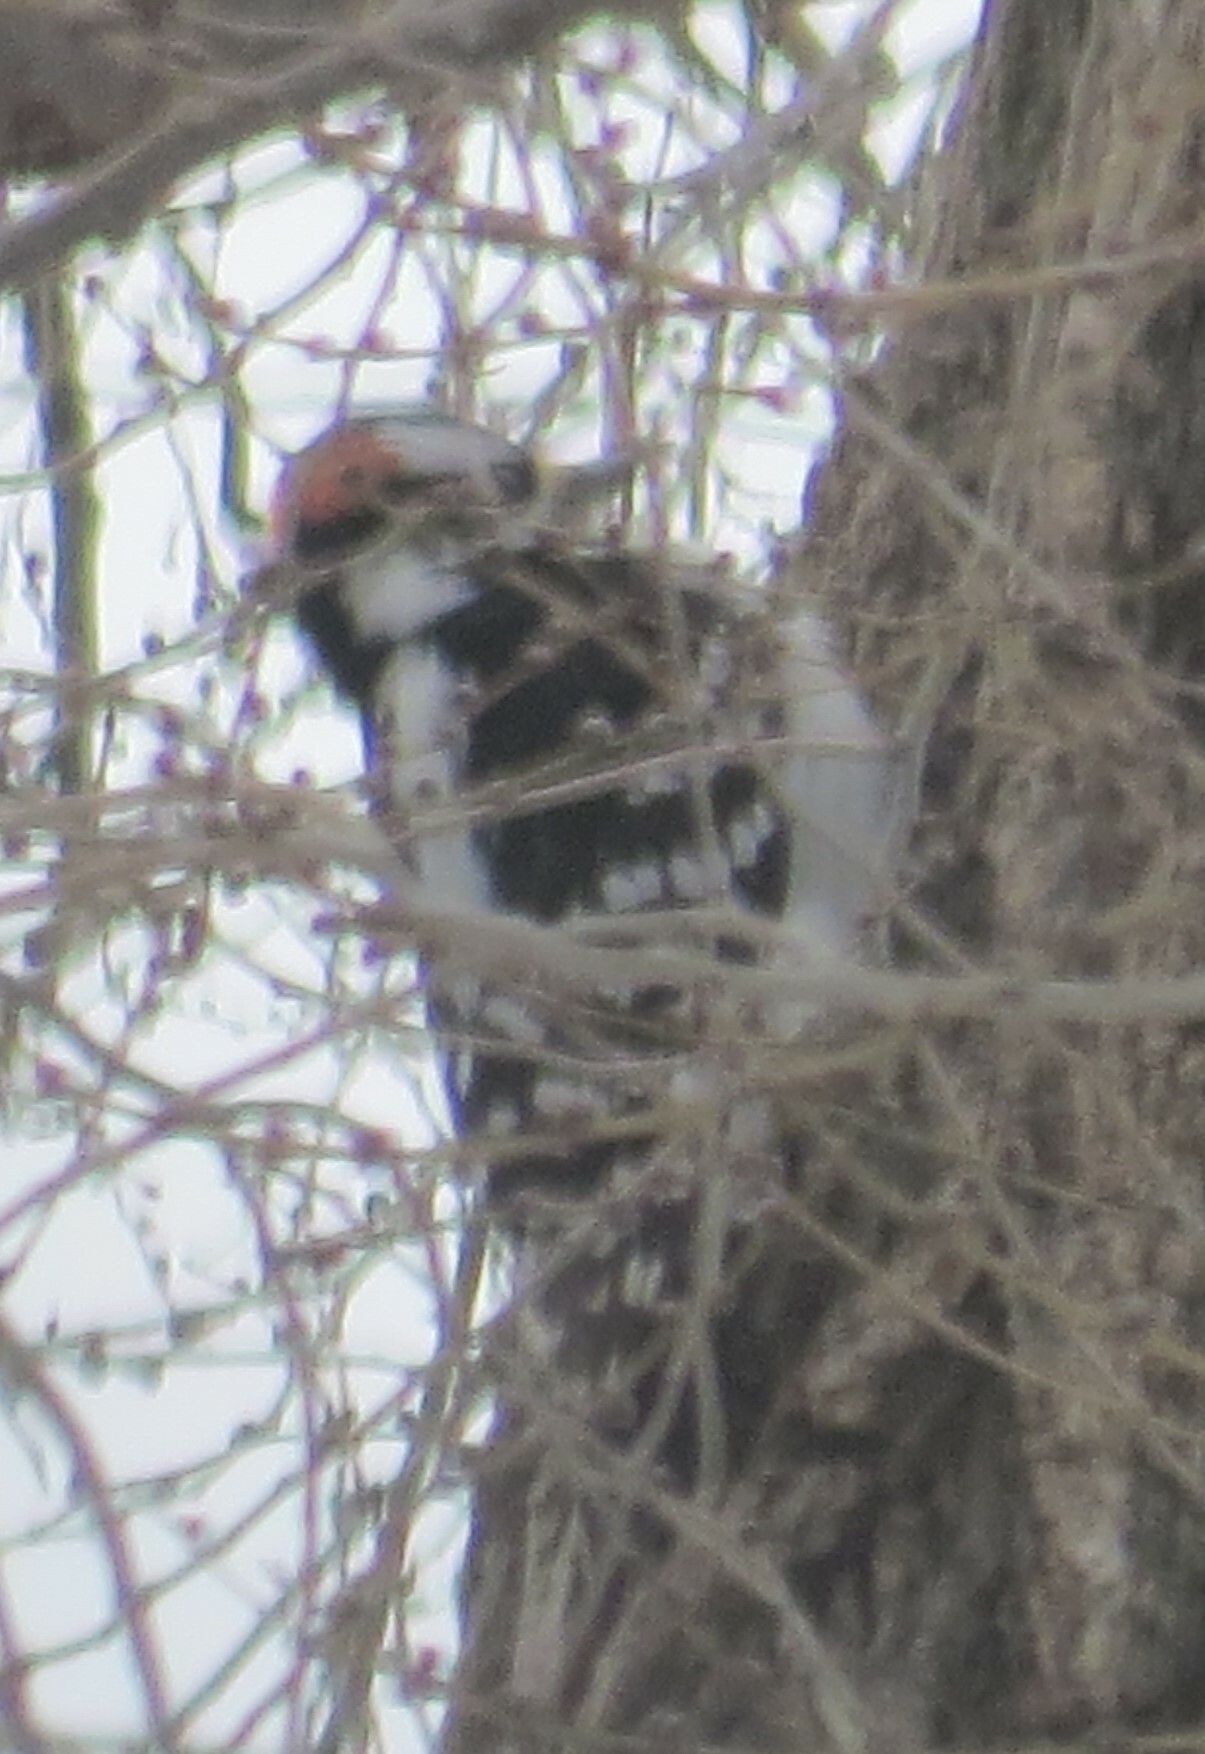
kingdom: Animalia
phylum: Chordata
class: Aves
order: Piciformes
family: Picidae
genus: Leuconotopicus
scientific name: Leuconotopicus villosus
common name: Hairy woodpecker
